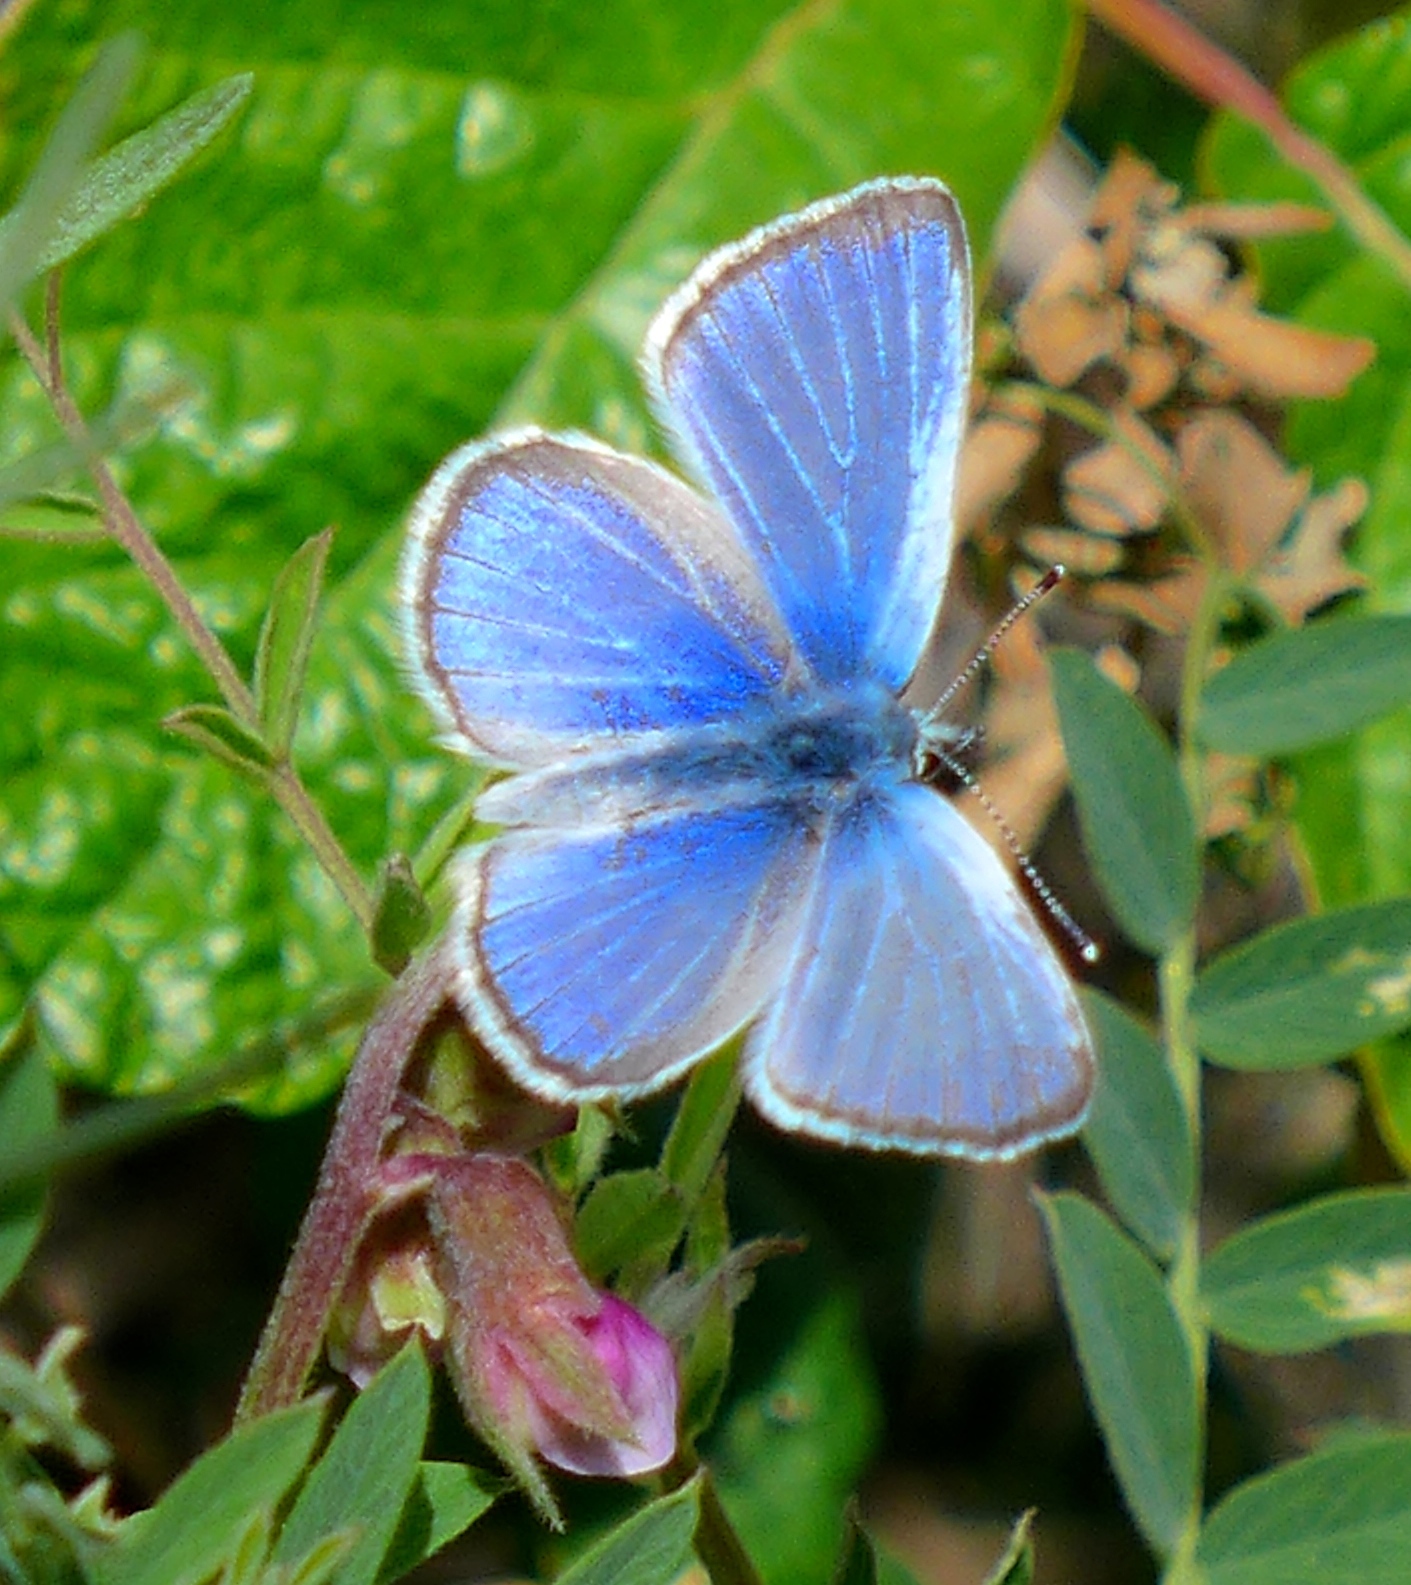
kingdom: Animalia
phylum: Arthropoda
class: Insecta
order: Lepidoptera
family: Lycaenidae
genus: Glaucopsyche
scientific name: Glaucopsyche lygdamus
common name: Silvery blue
